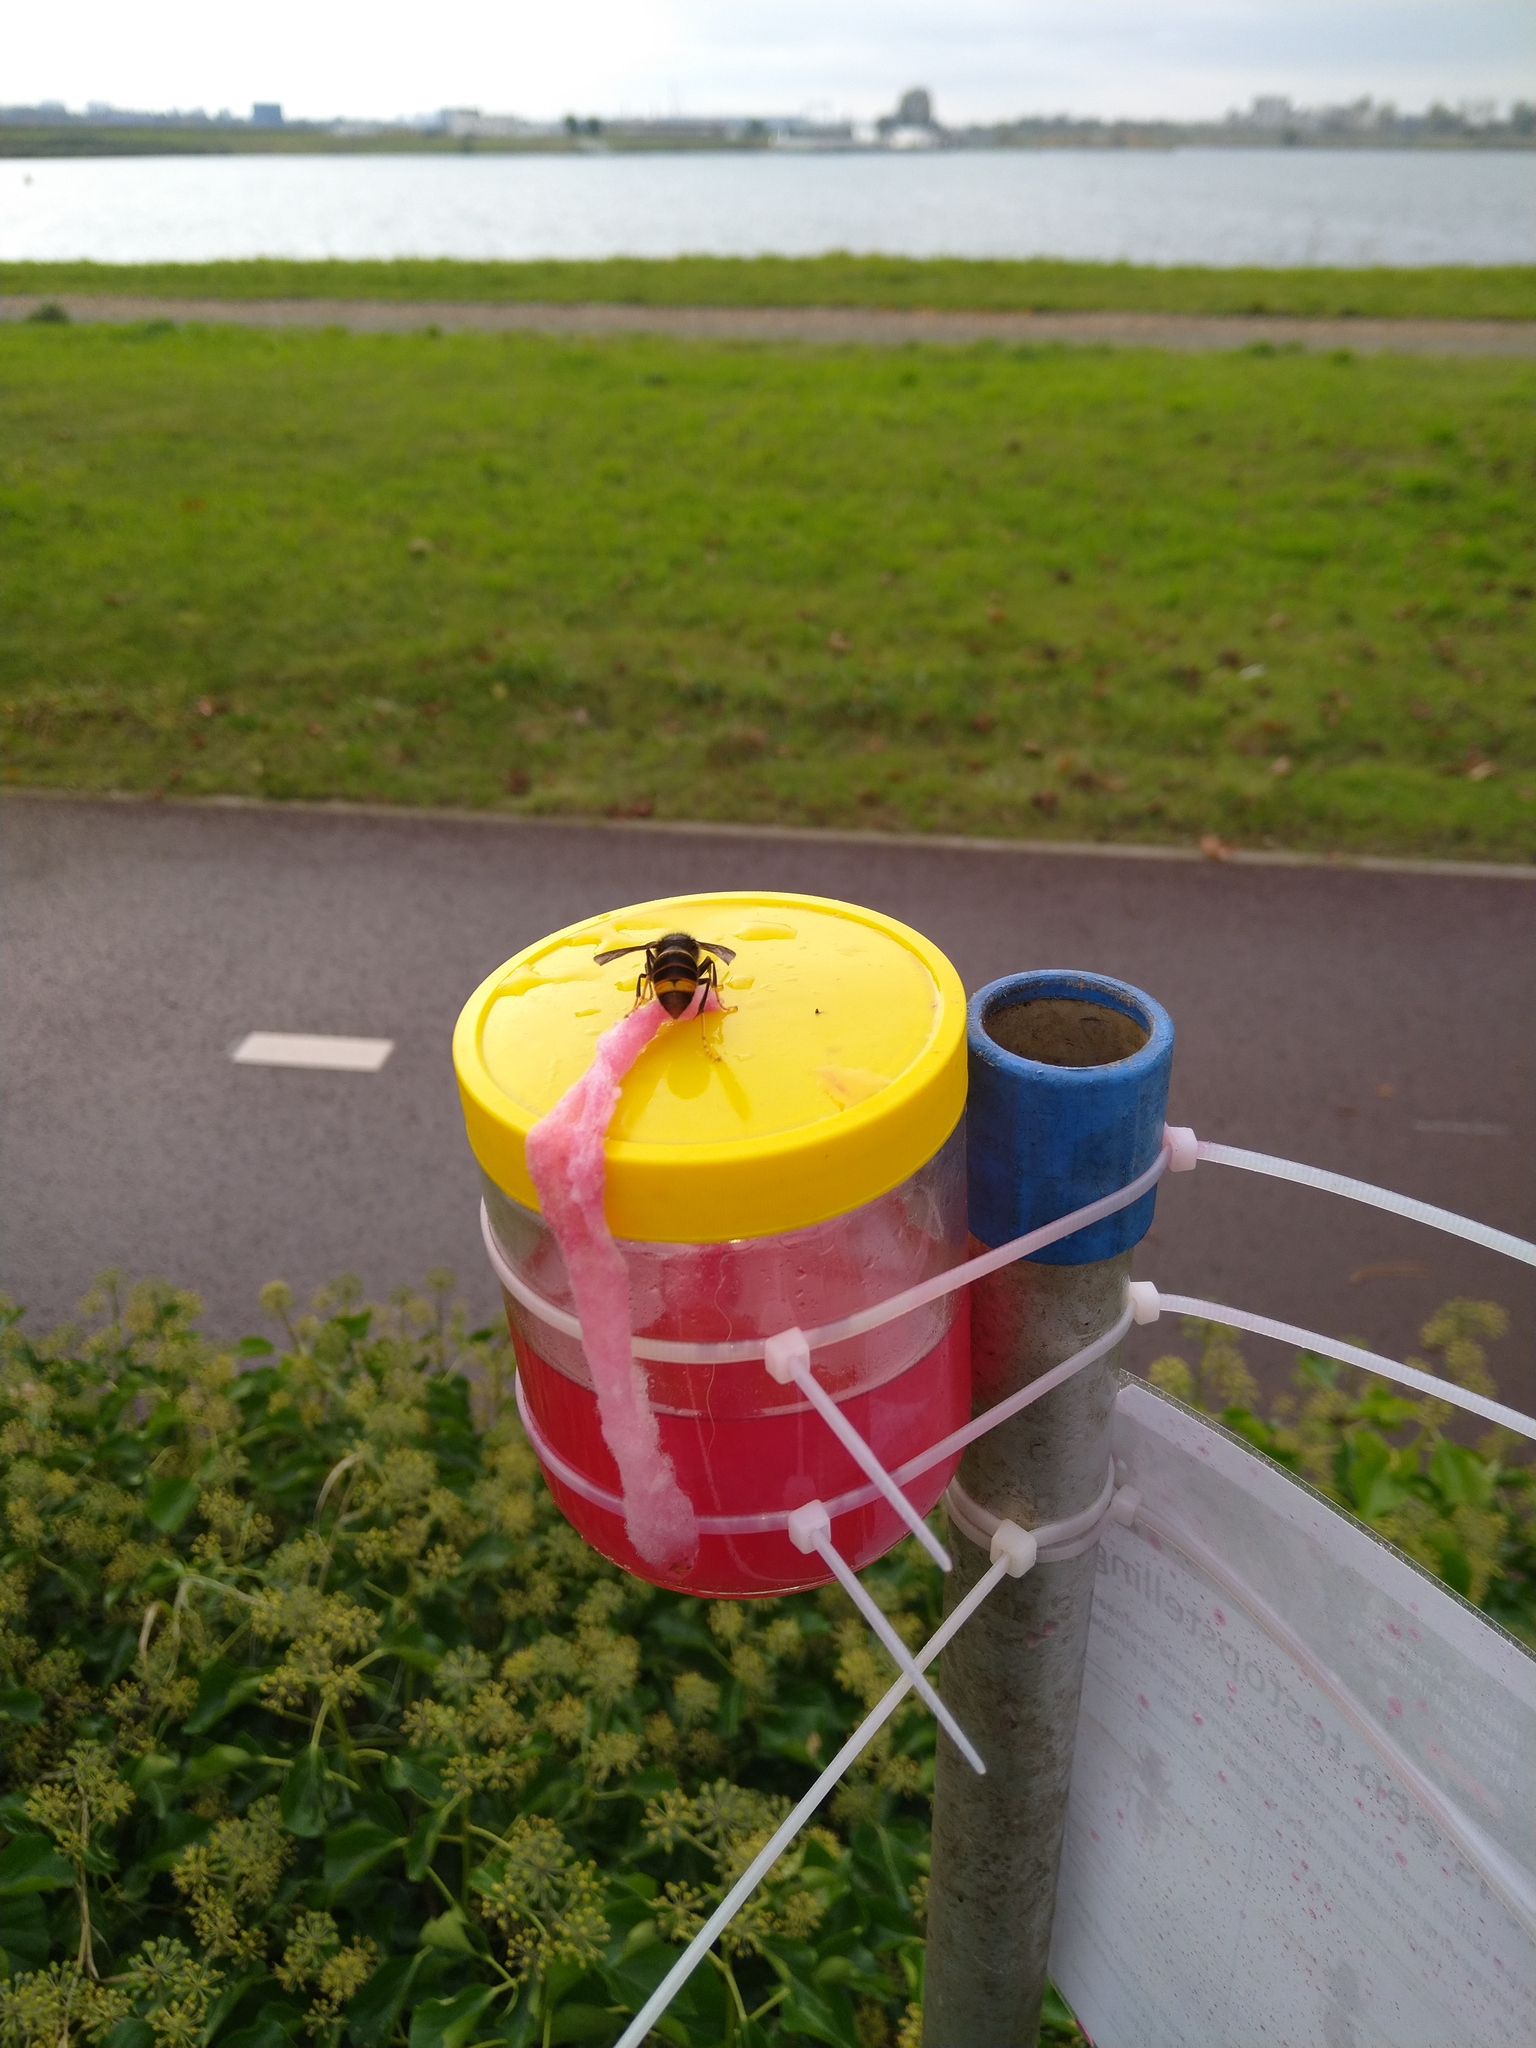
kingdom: Animalia
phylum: Arthropoda
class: Insecta
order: Hymenoptera
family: Vespidae
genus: Vespa
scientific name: Vespa velutina
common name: Asian hornet
